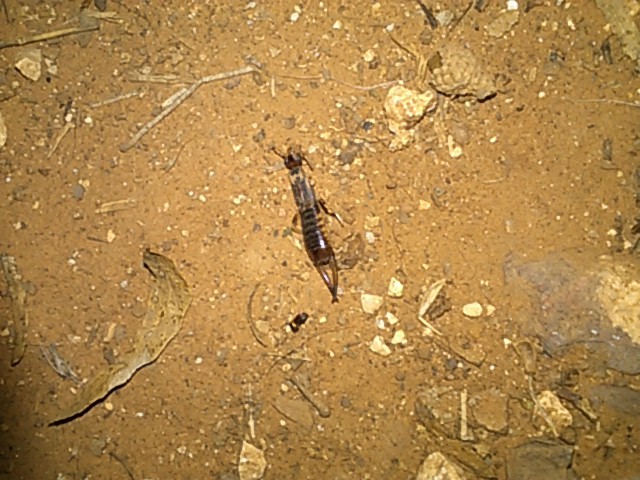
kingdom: Animalia
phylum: Arthropoda
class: Insecta
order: Dermaptera
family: Labiduridae
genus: Labidura
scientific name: Labidura riparia
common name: Striped earwig
